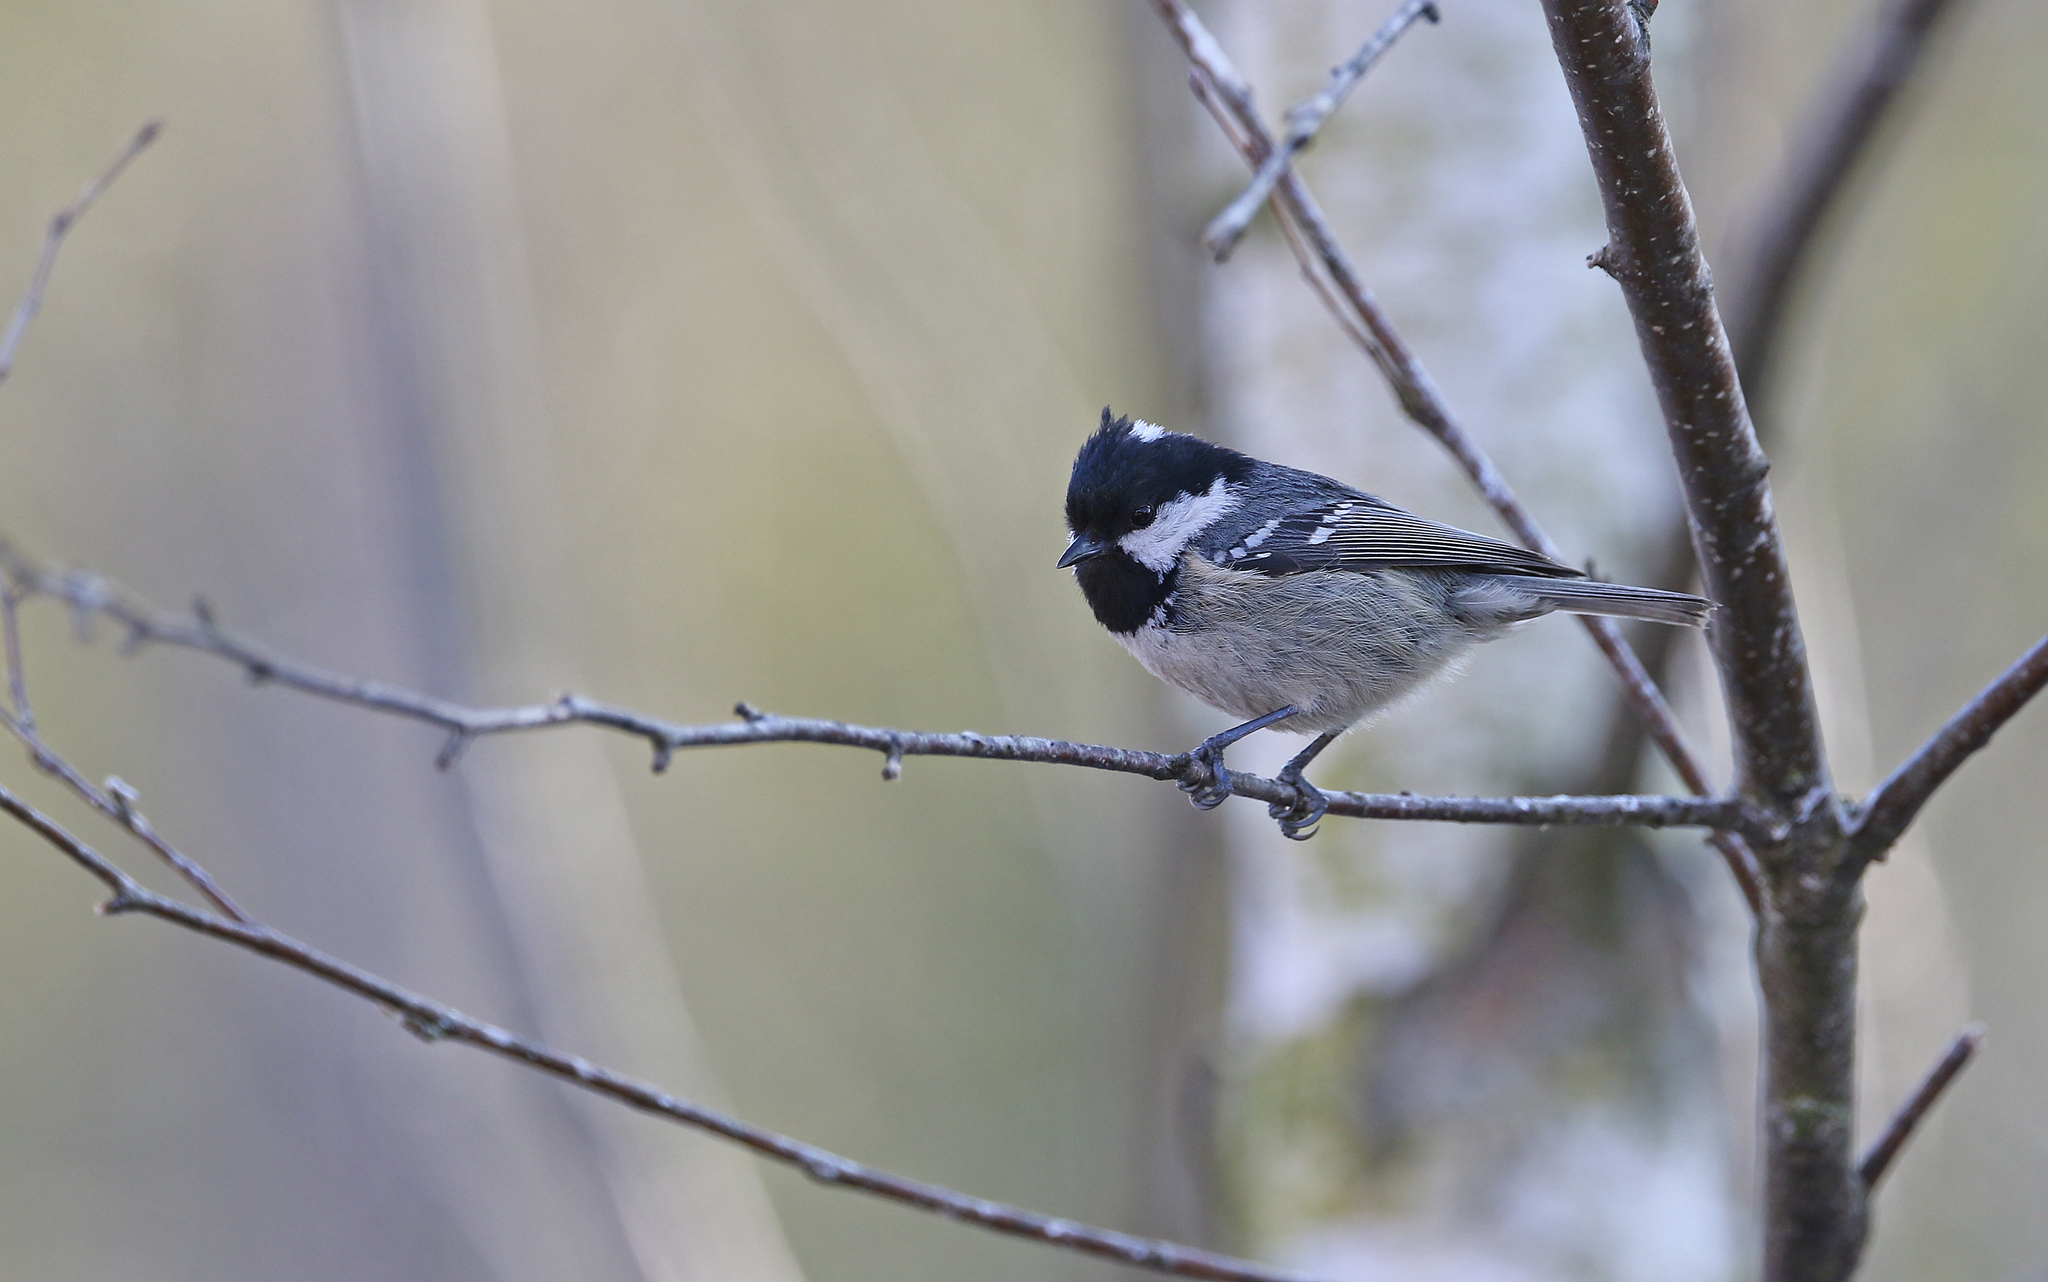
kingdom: Animalia
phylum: Chordata
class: Aves
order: Passeriformes
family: Paridae
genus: Periparus
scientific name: Periparus ater
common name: Coal tit
